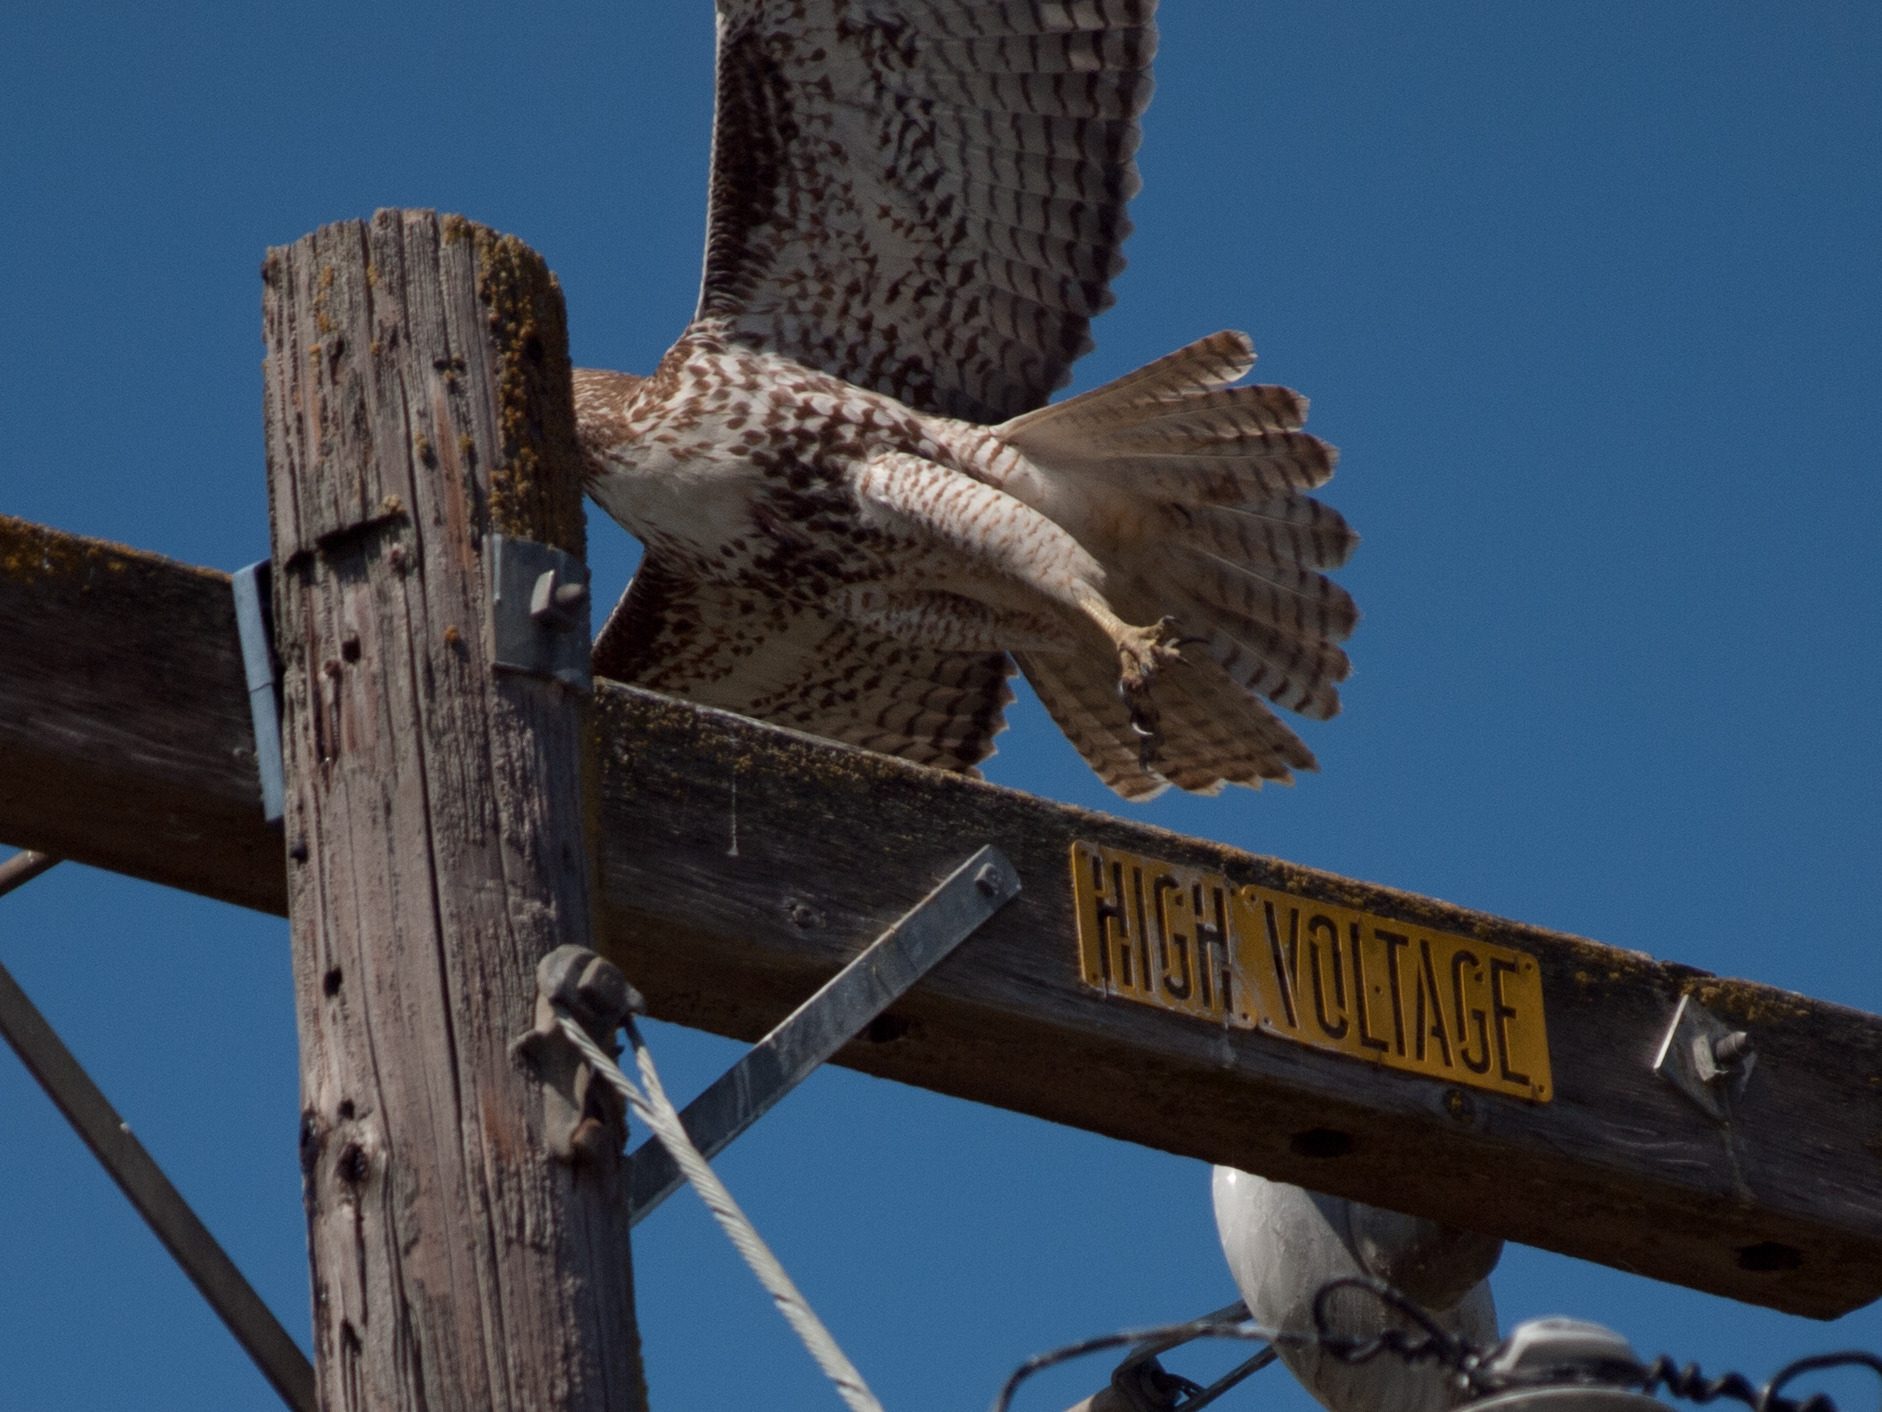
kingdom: Animalia
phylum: Chordata
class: Aves
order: Accipitriformes
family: Accipitridae
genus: Buteo
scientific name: Buteo jamaicensis
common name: Red-tailed hawk
